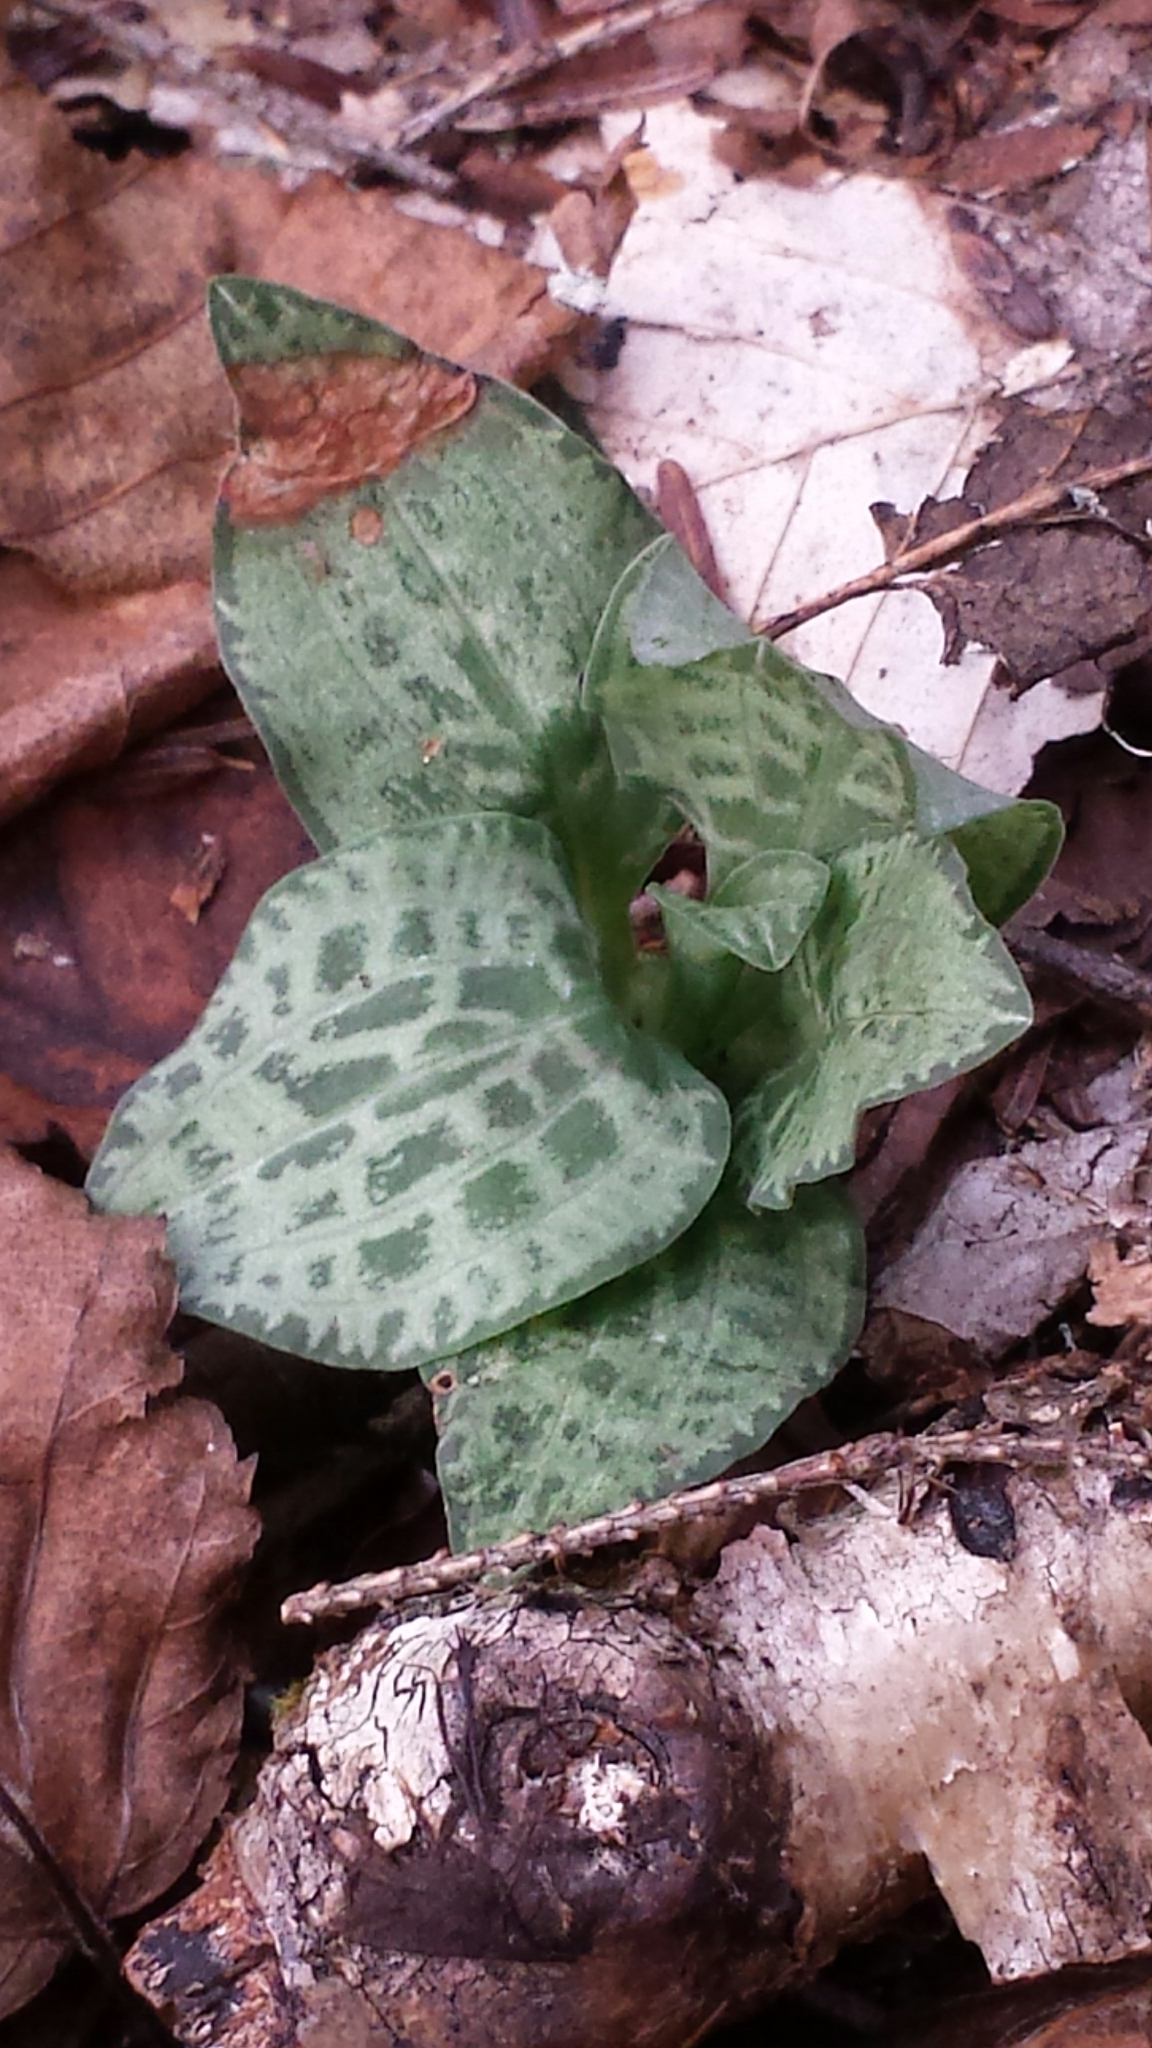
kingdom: Plantae
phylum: Tracheophyta
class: Liliopsida
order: Asparagales
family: Orchidaceae
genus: Goodyera
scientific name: Goodyera tesselata
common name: Checkered rattlesnake-plantain
